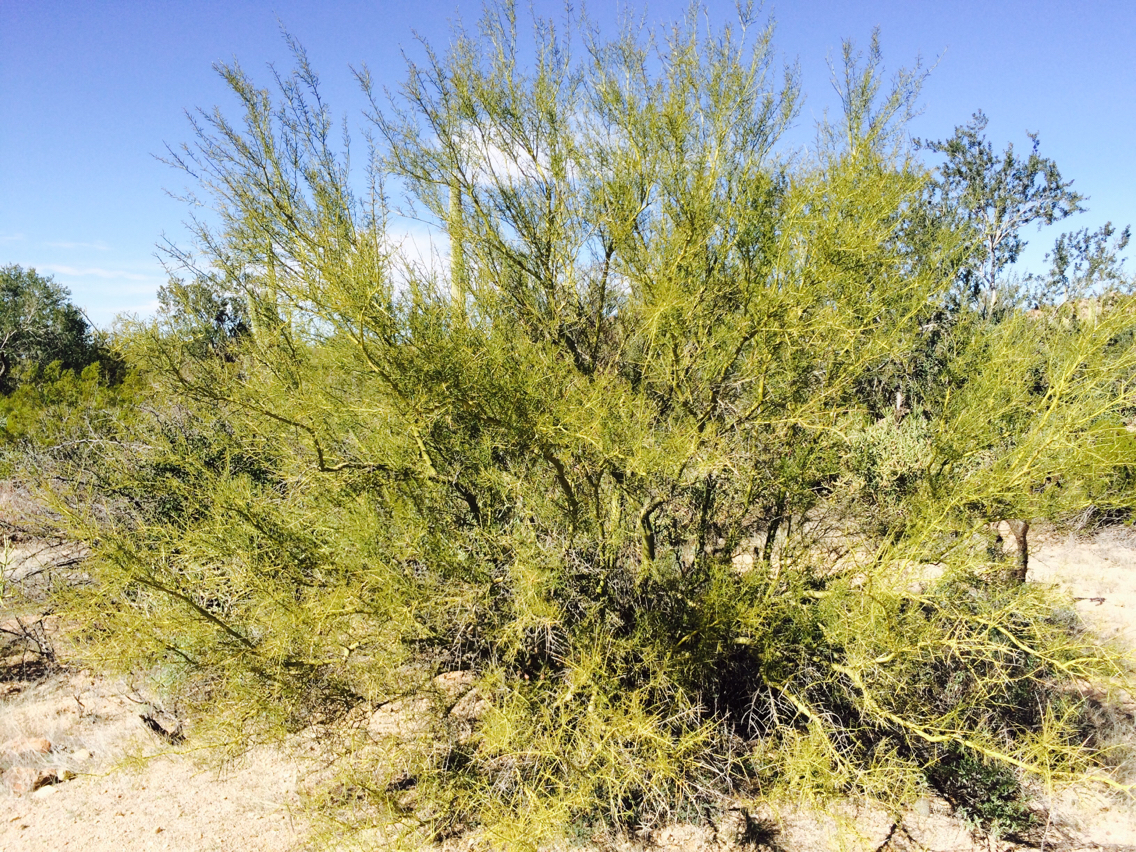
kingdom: Plantae
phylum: Tracheophyta
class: Magnoliopsida
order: Fabales
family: Fabaceae
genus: Parkinsonia
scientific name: Parkinsonia microphylla
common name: Yellow paloverde
